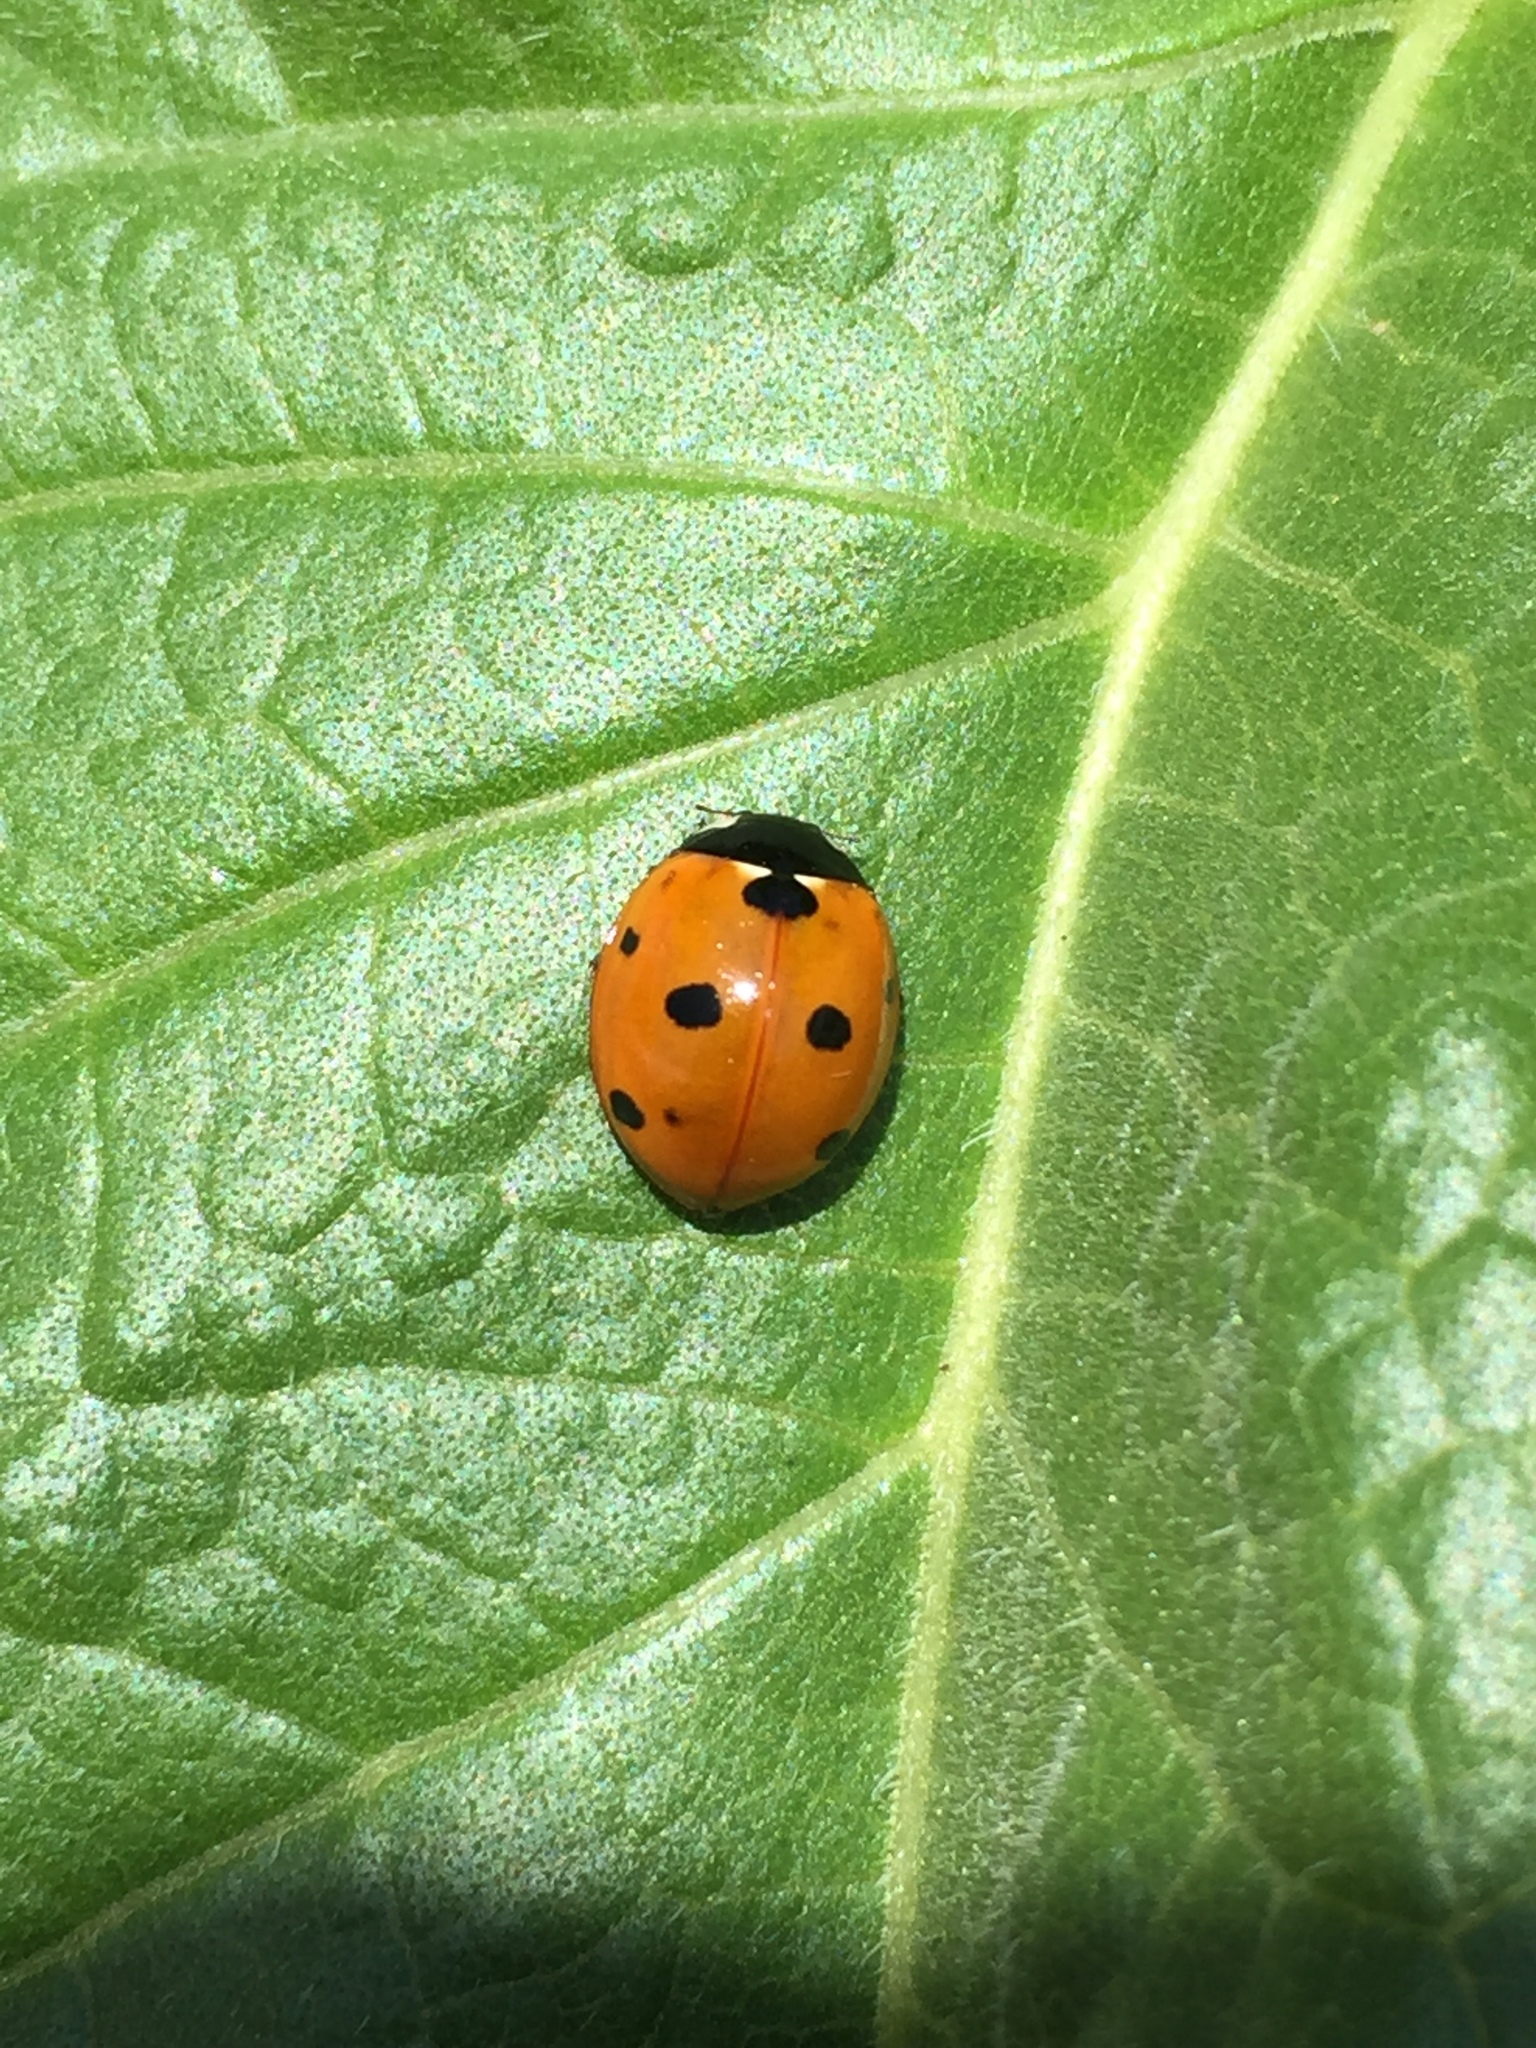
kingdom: Animalia
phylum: Arthropoda
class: Insecta
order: Coleoptera
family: Coccinellidae
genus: Coccinella
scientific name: Coccinella septempunctata
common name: Sevenspotted lady beetle
